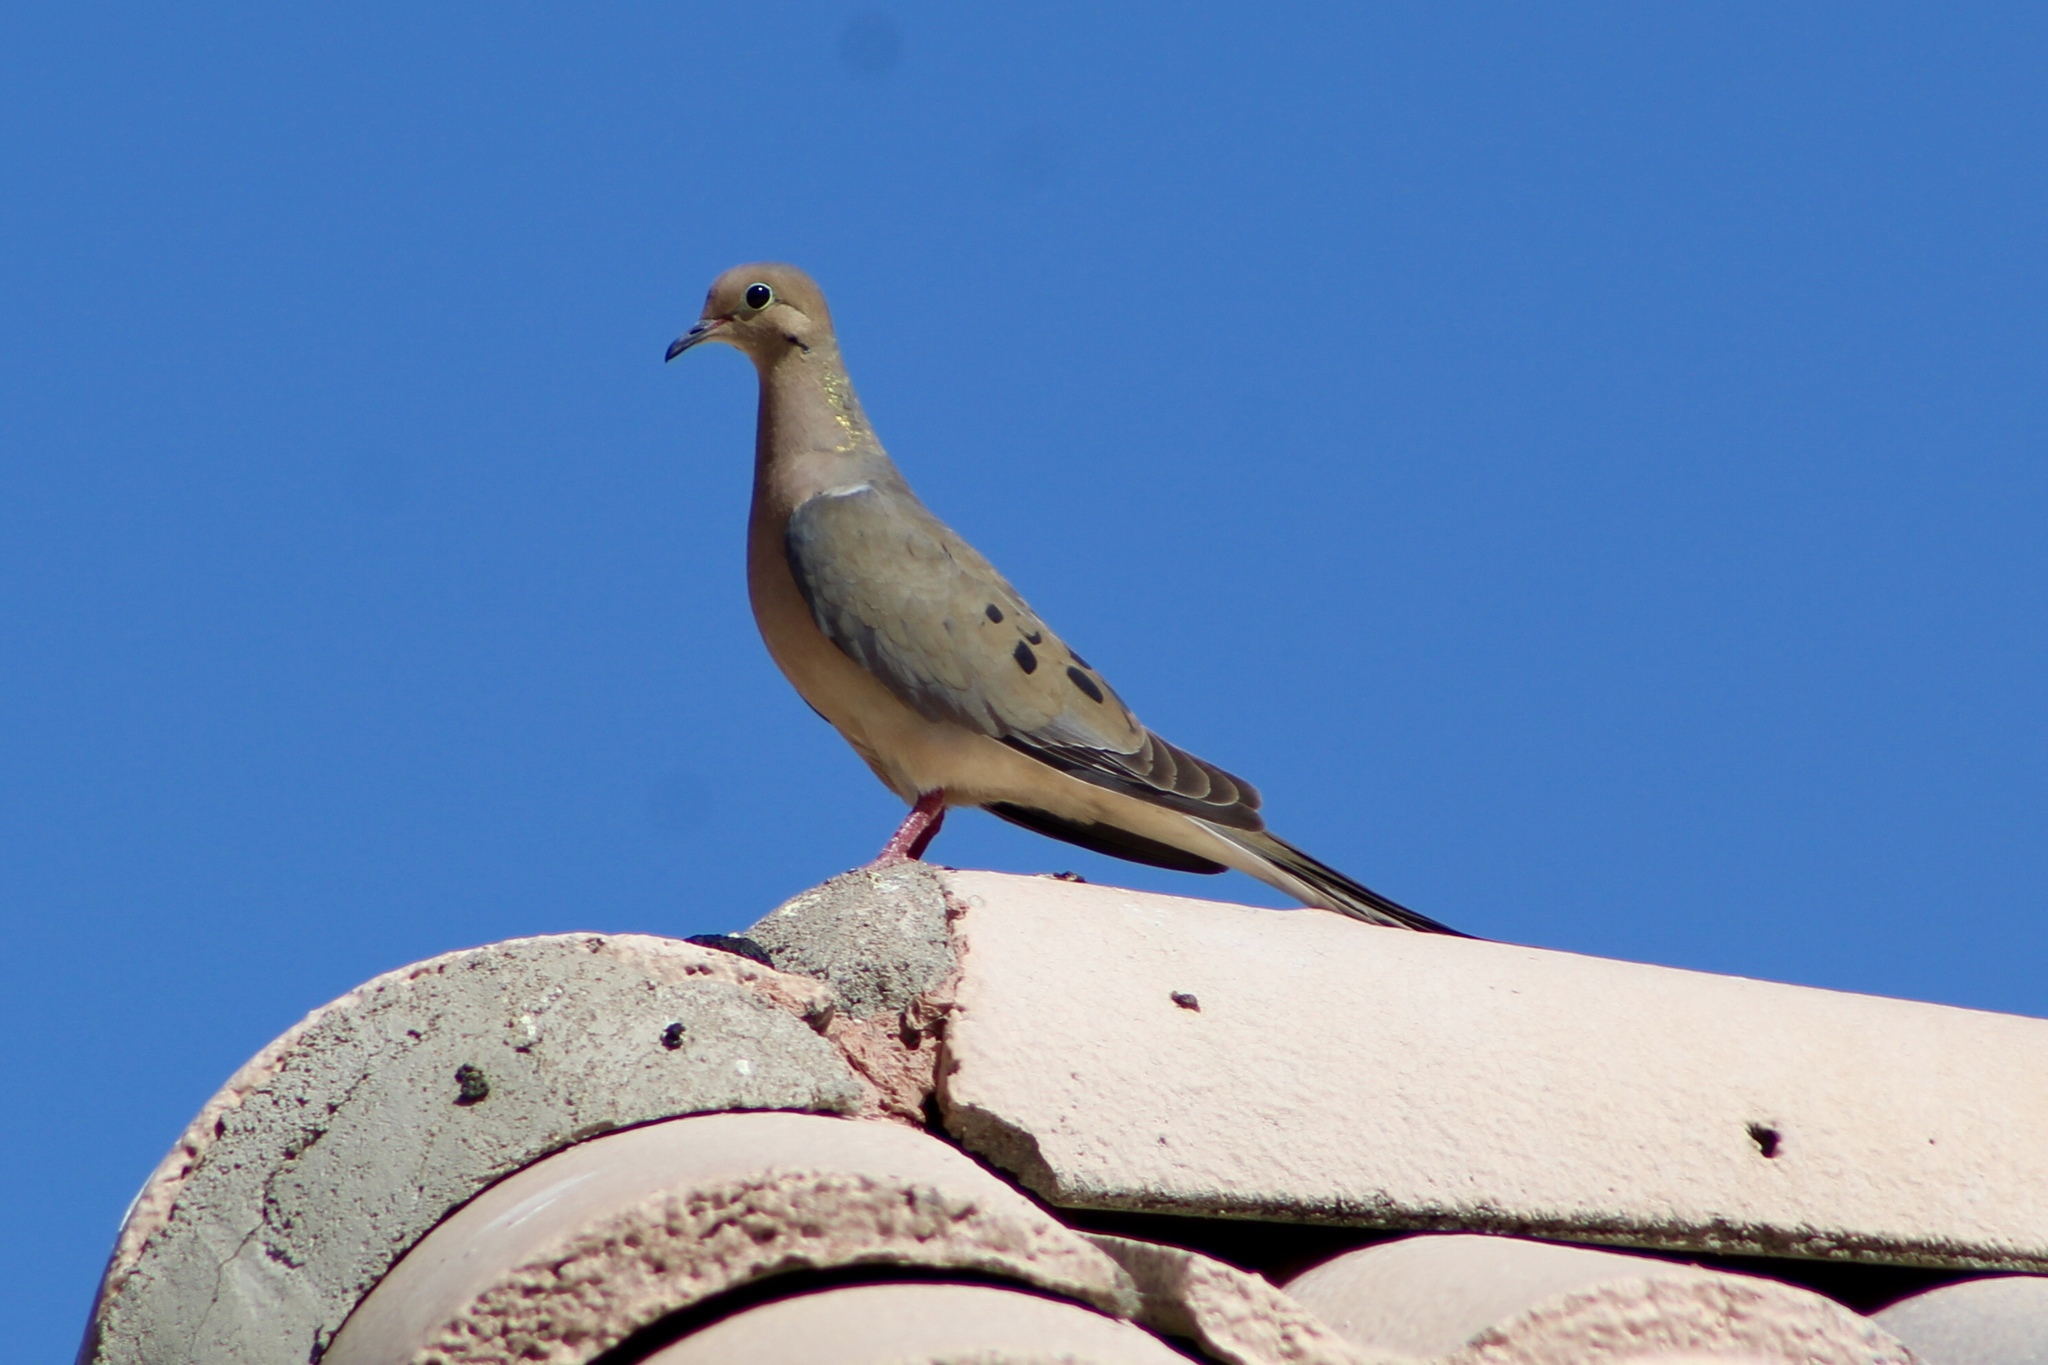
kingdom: Animalia
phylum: Chordata
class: Aves
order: Columbiformes
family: Columbidae
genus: Zenaida
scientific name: Zenaida macroura
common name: Mourning dove
